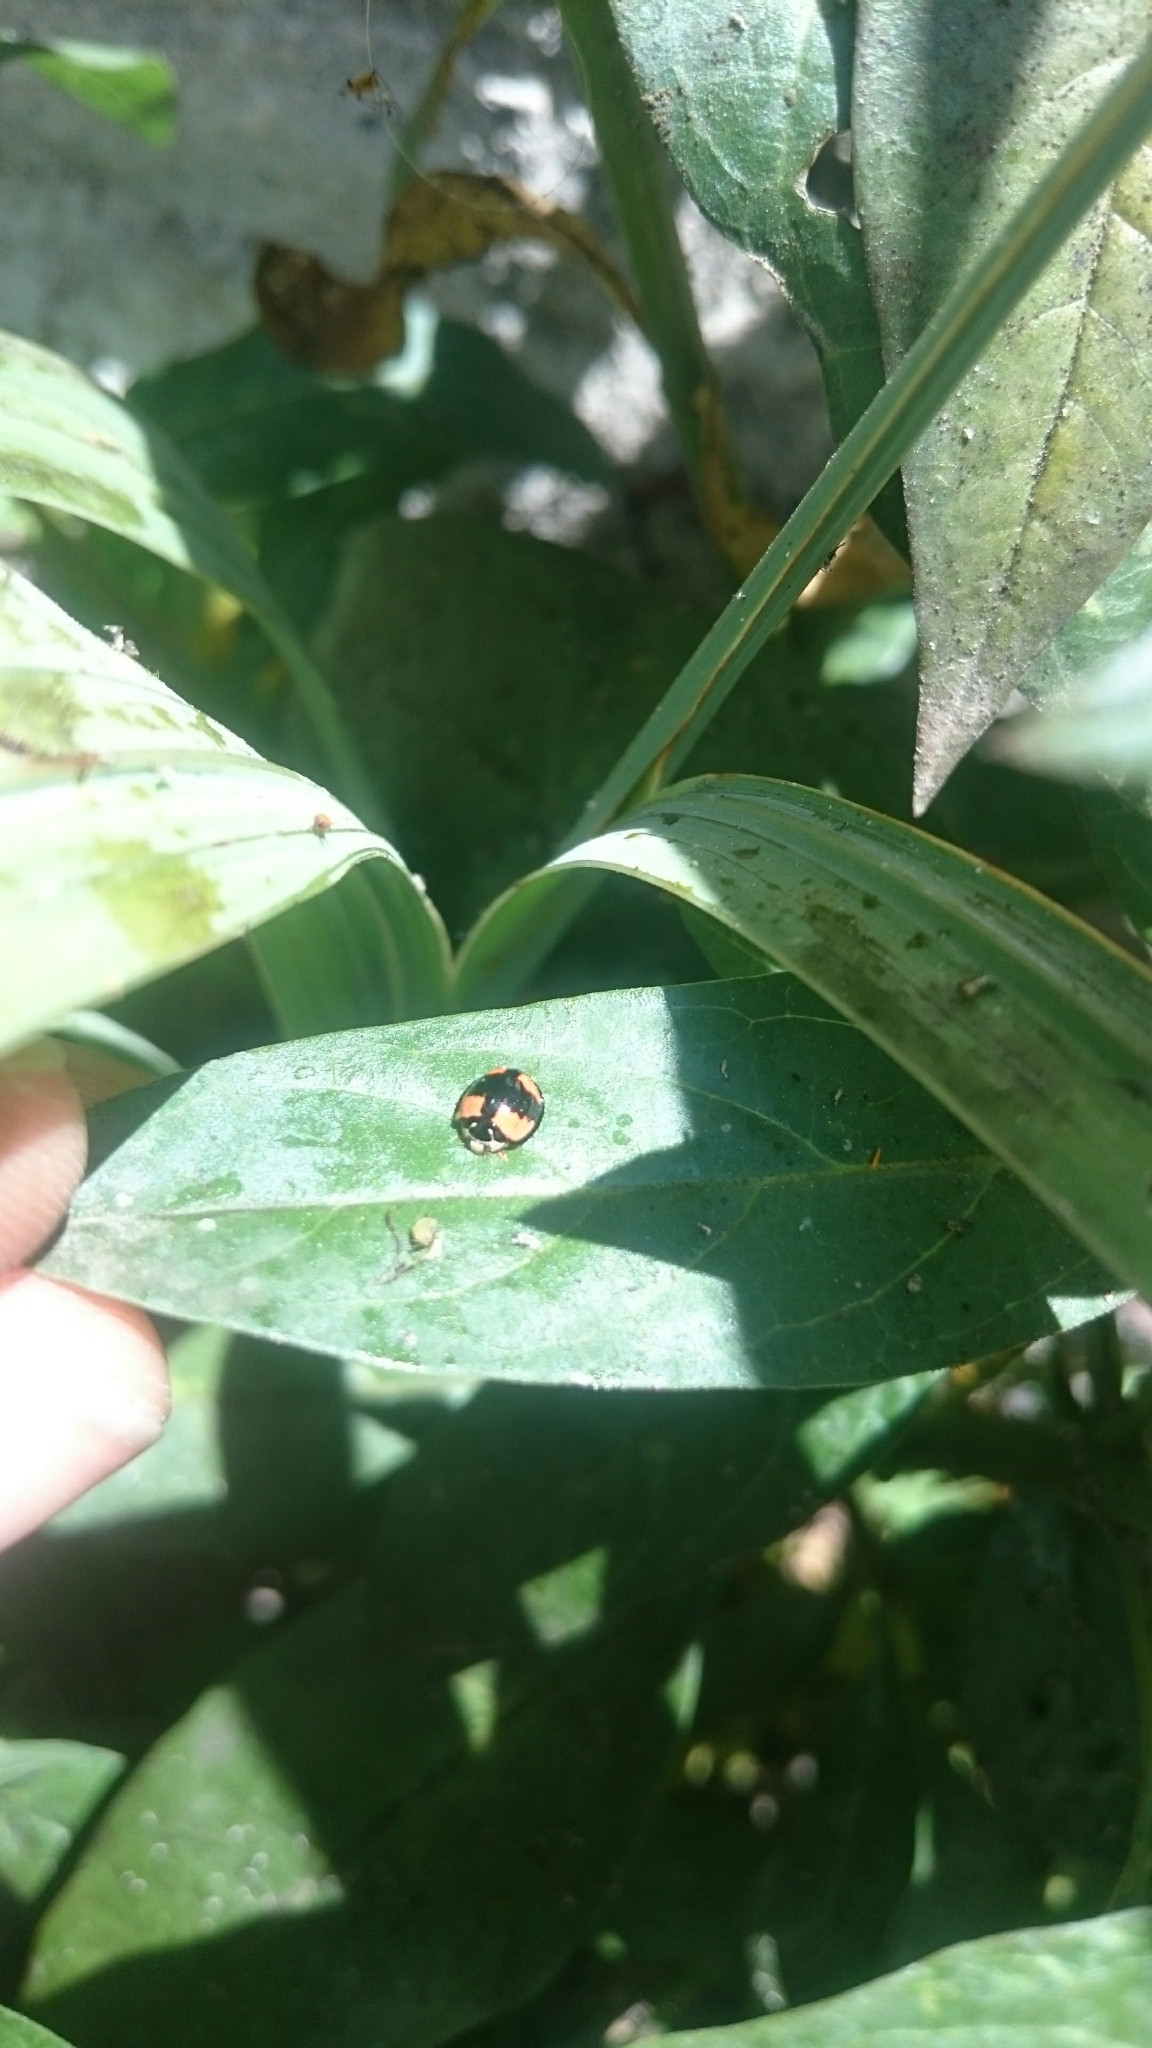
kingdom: Animalia
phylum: Arthropoda
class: Insecta
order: Coleoptera
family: Coccinellidae
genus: Cheilomenes
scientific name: Cheilomenes sexmaculata
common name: Ladybird beetle
